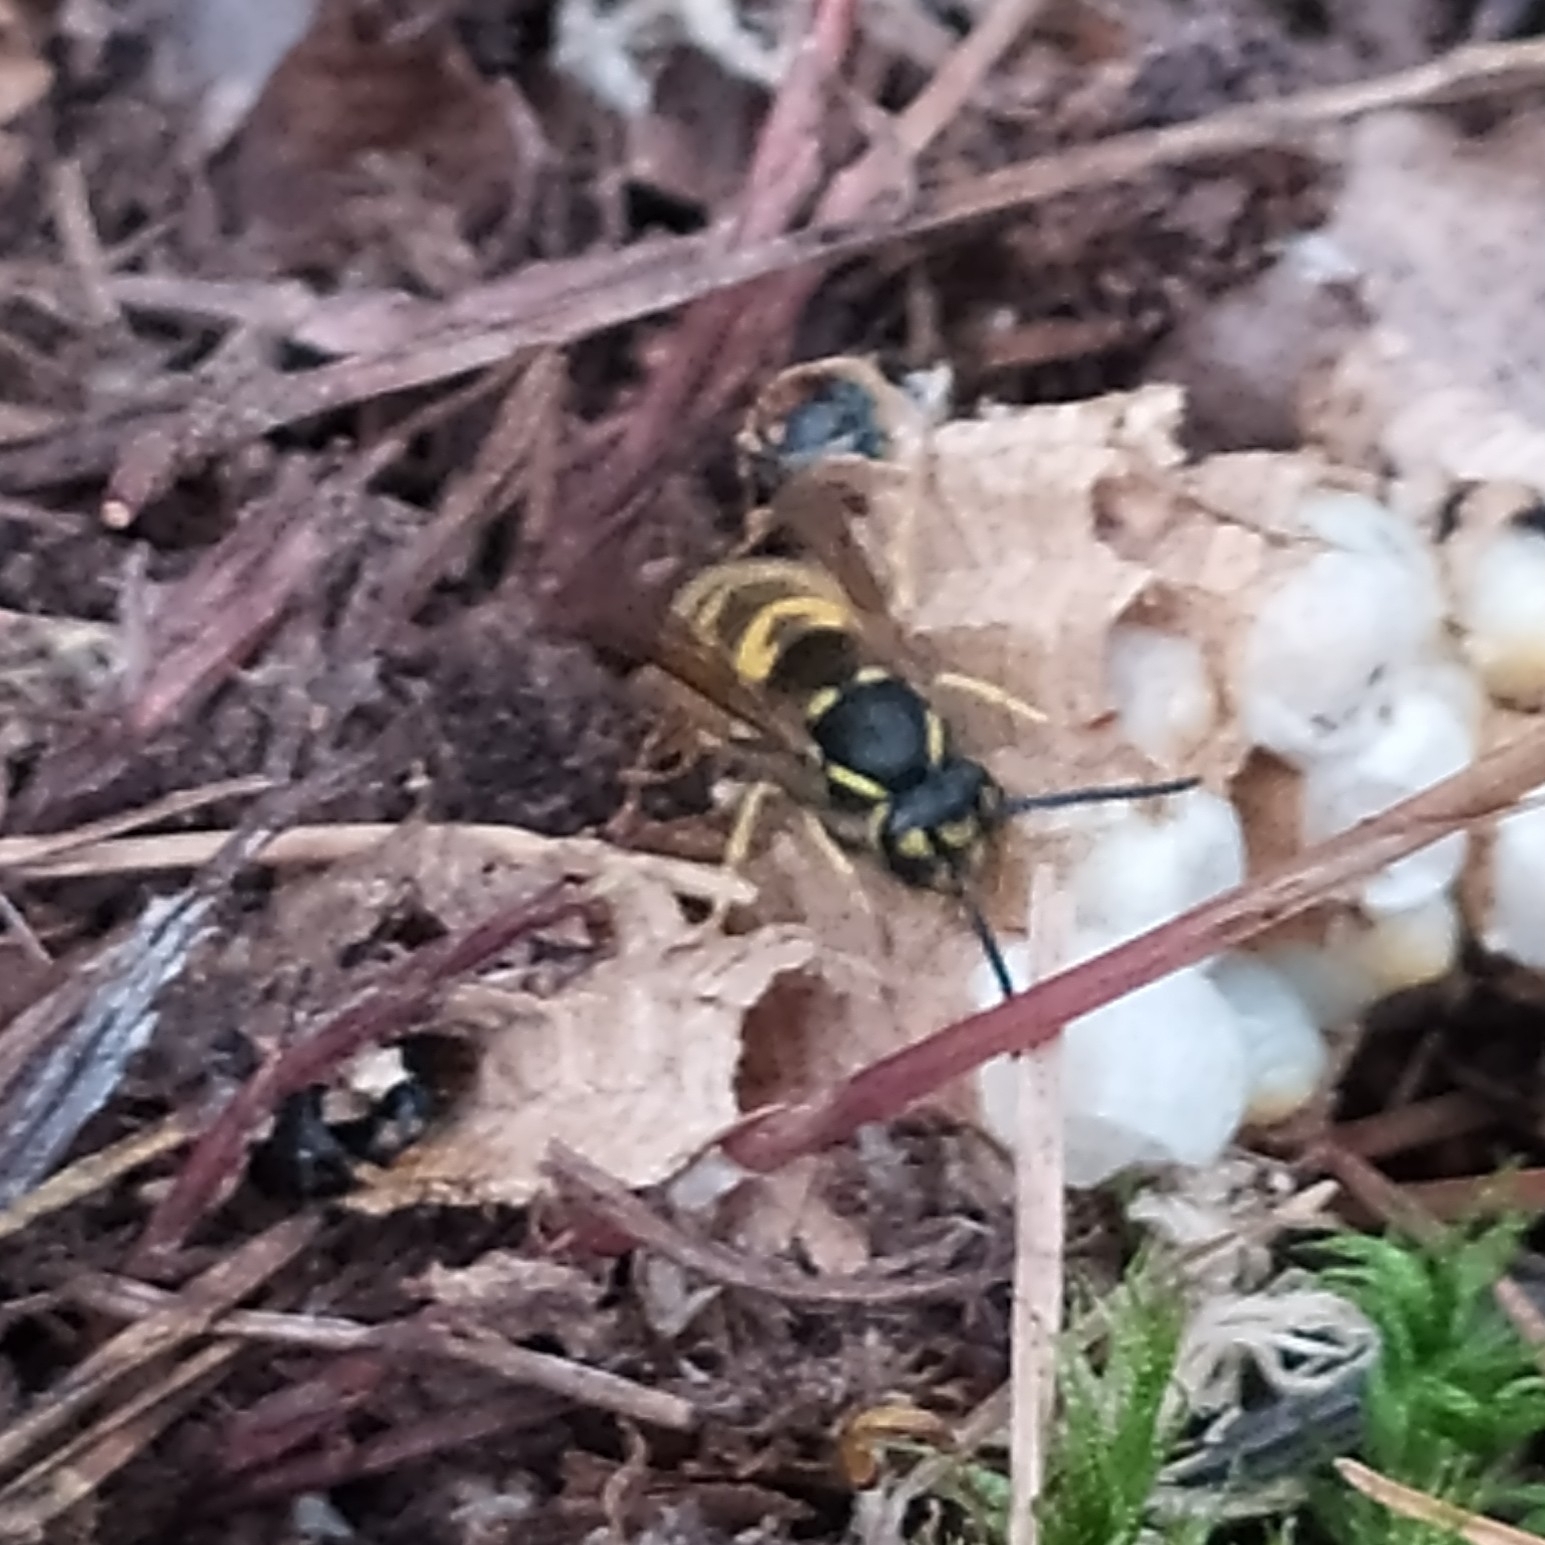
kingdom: Animalia
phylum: Arthropoda
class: Insecta
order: Hymenoptera
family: Vespidae
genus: Vespula
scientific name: Vespula vulgaris
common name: Common wasp
